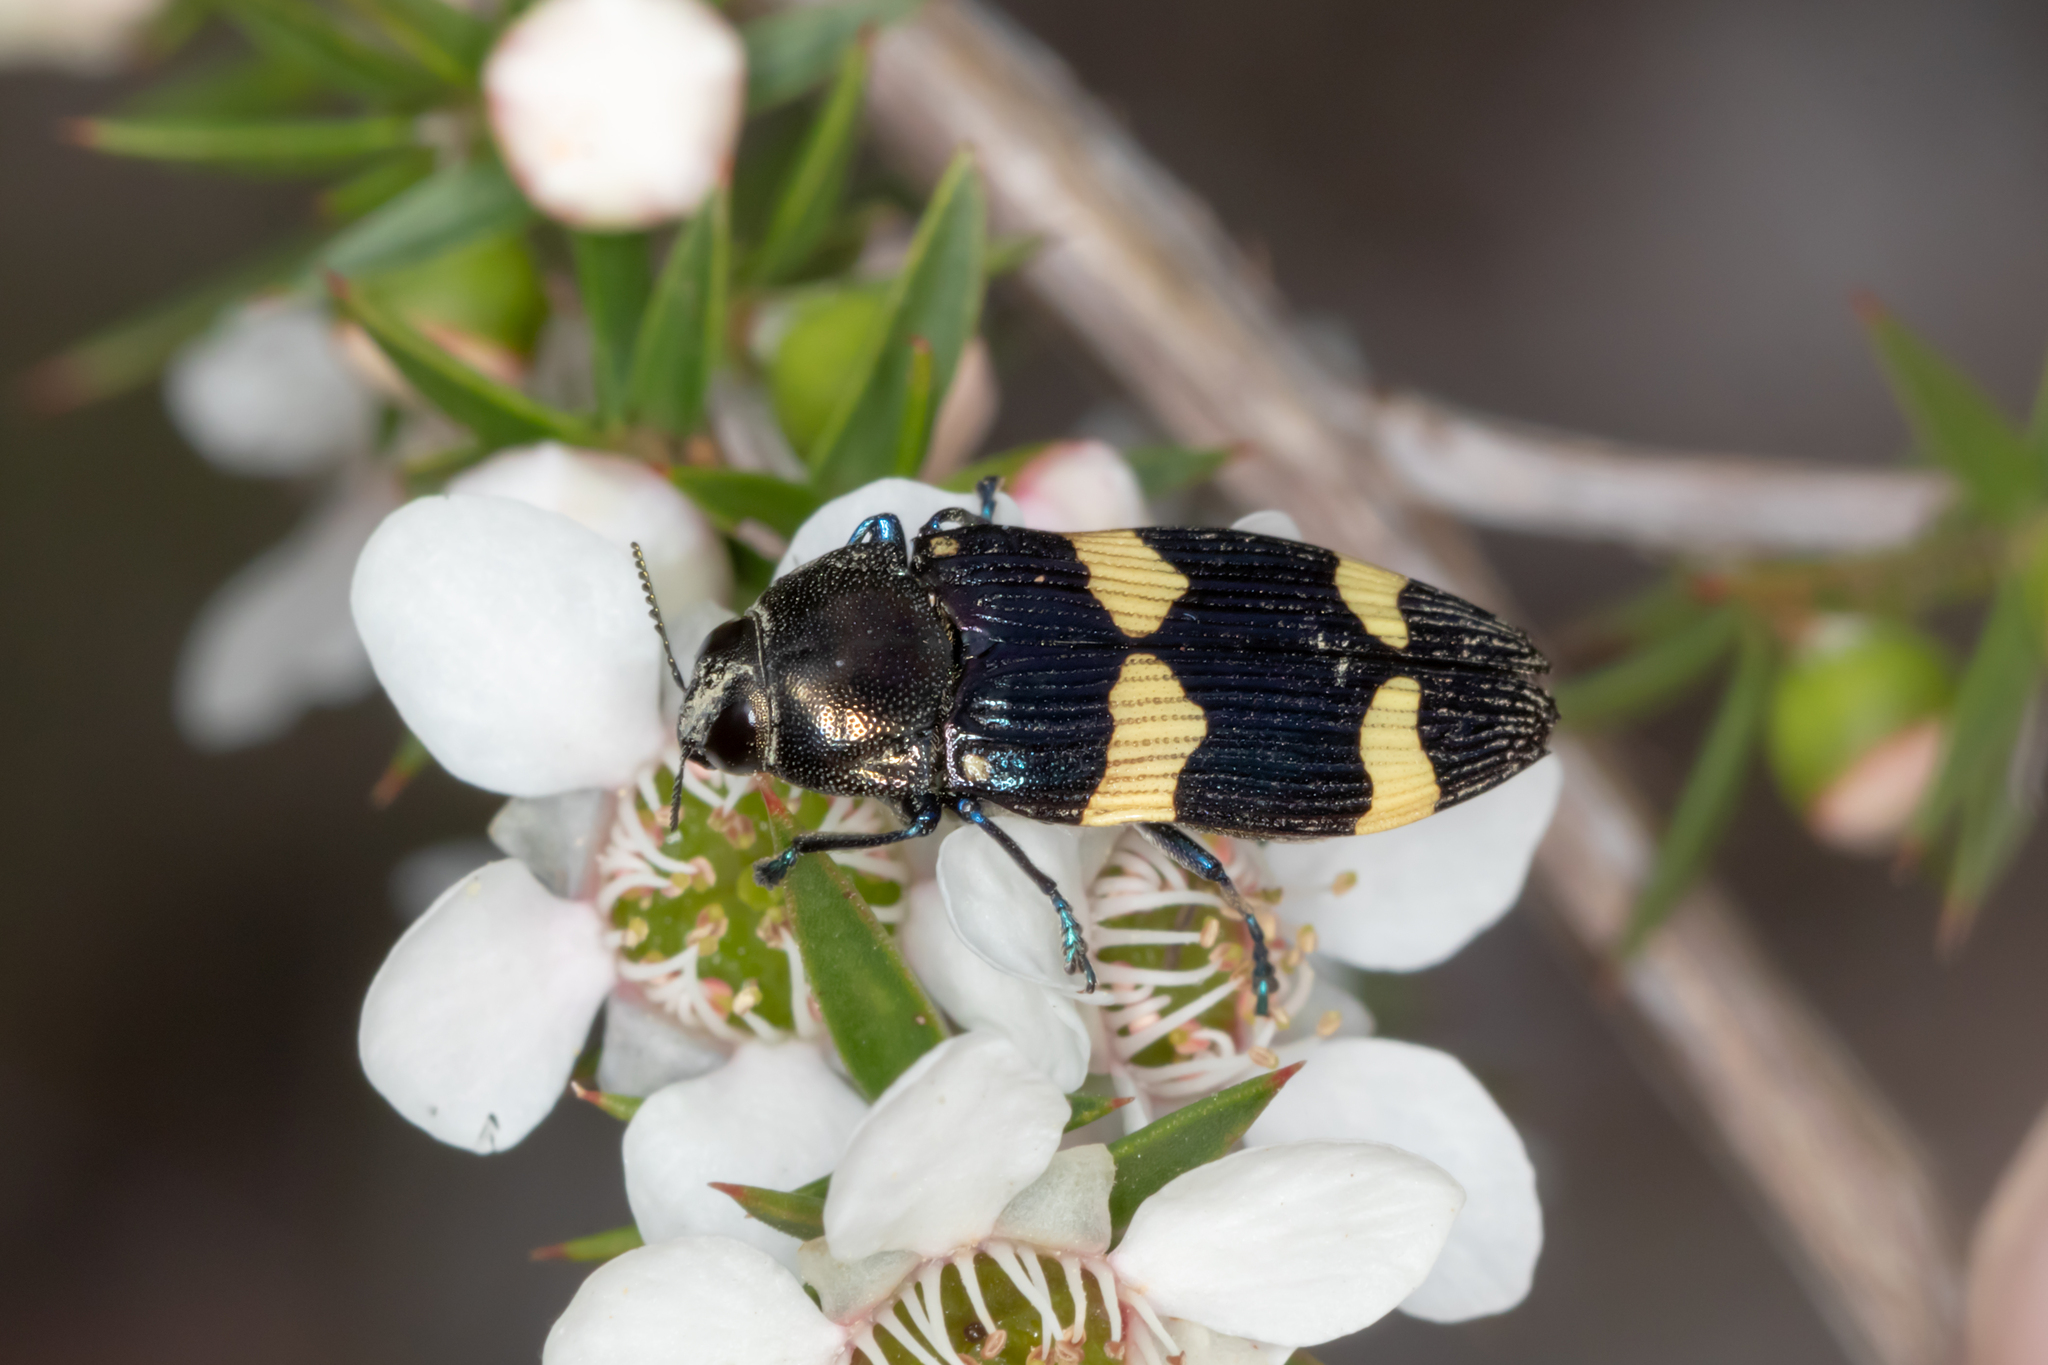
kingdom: Animalia
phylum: Arthropoda
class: Insecta
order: Coleoptera
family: Buprestidae
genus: Castiarina
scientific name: Castiarina bifasciata
